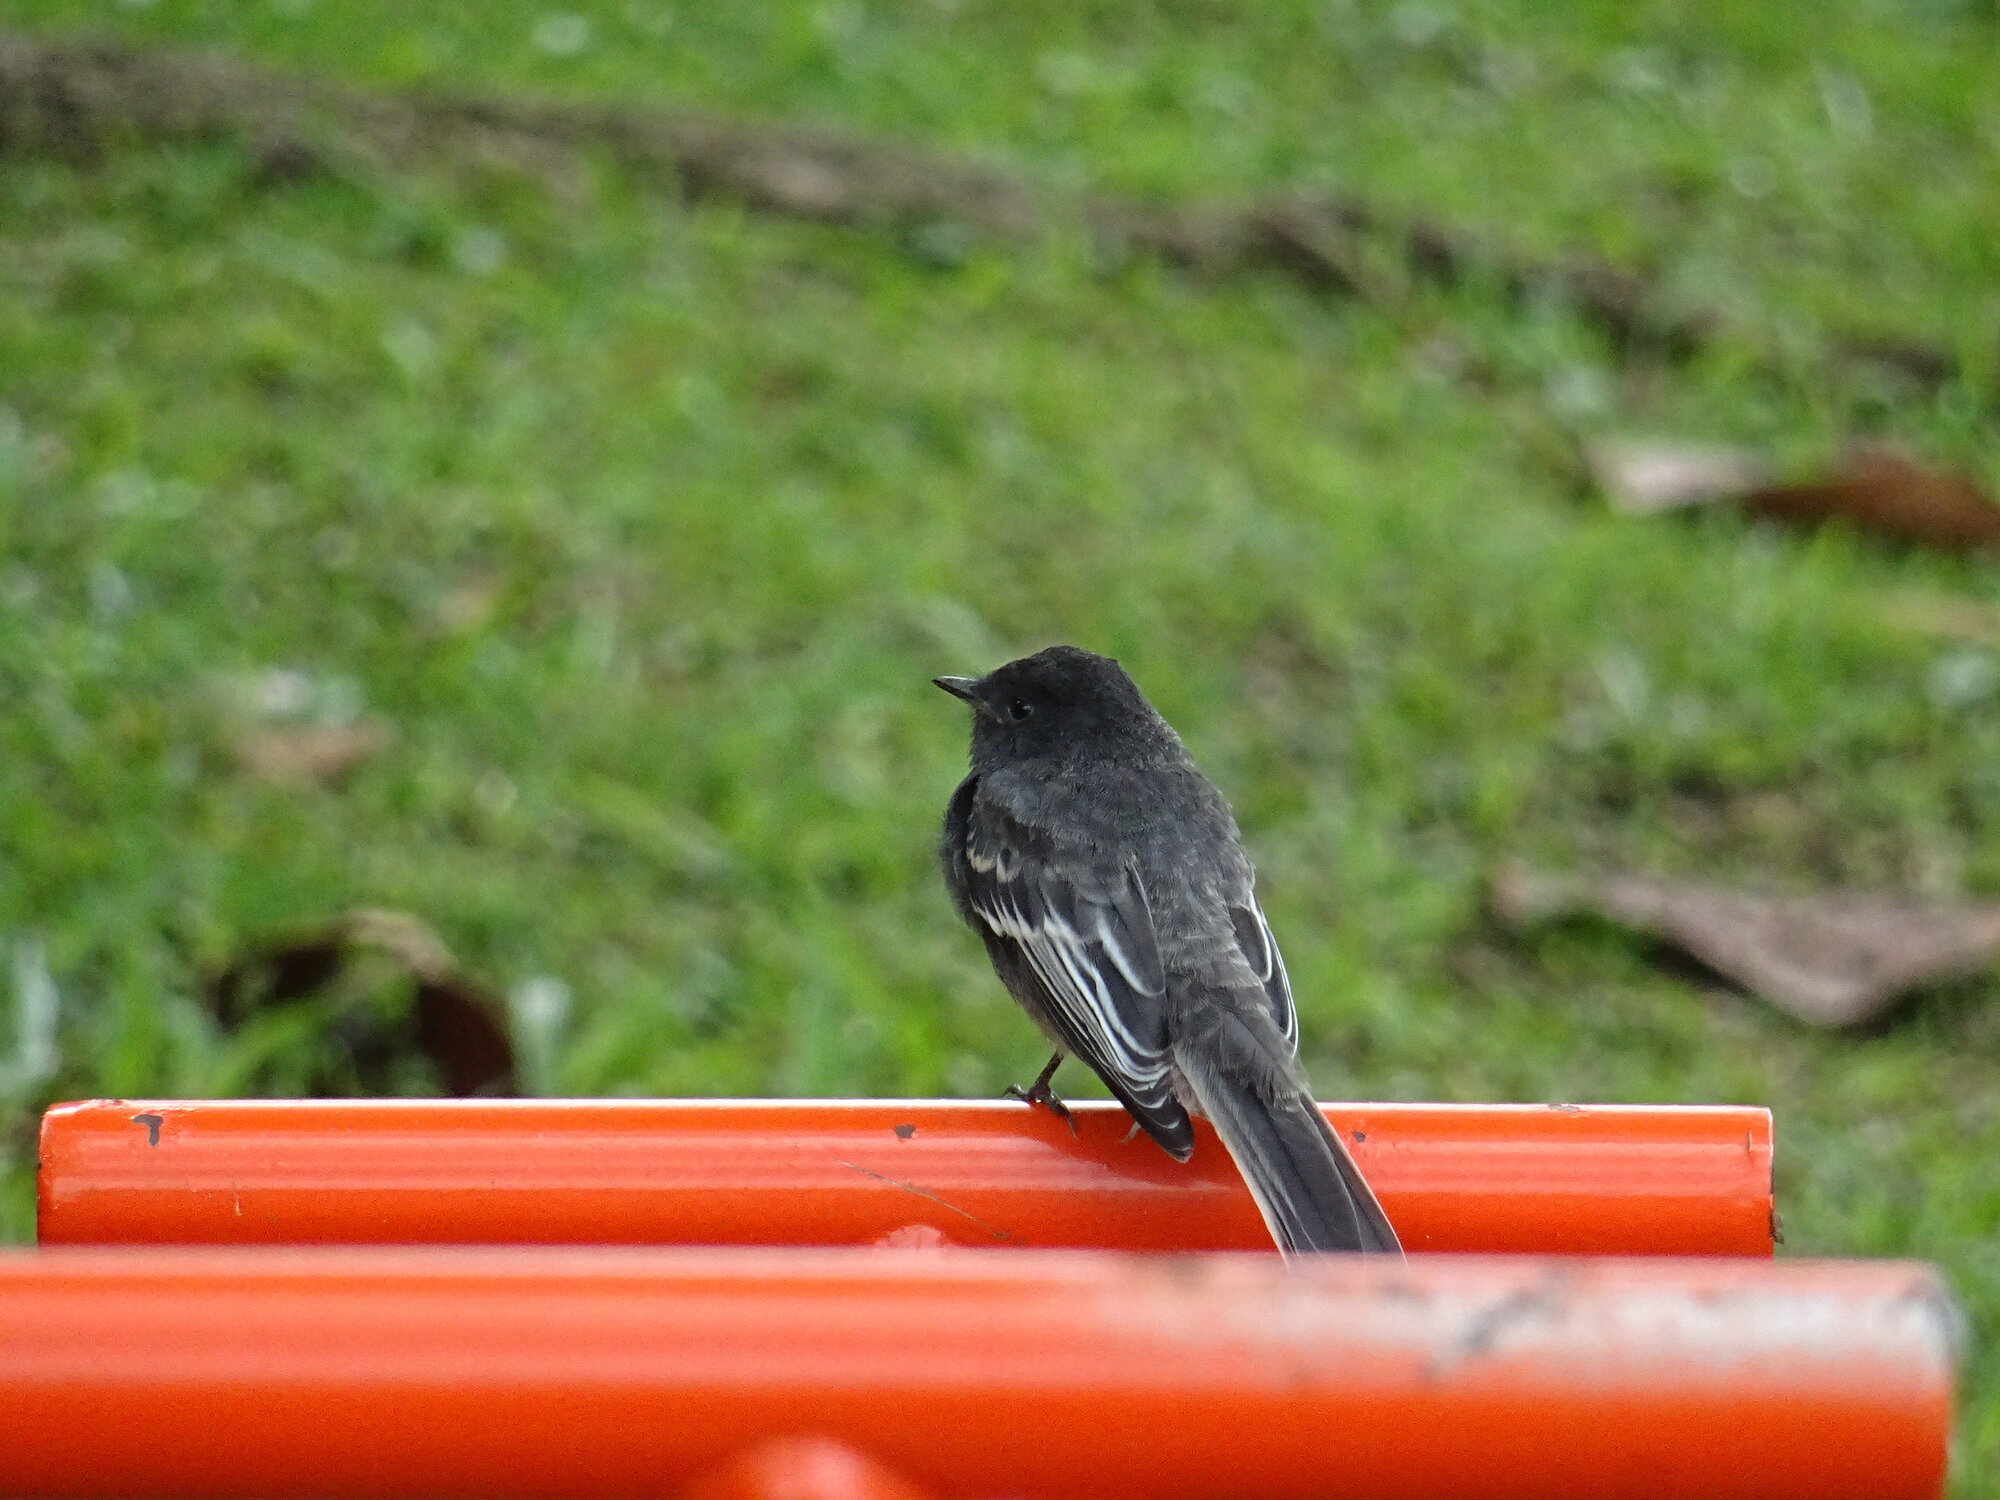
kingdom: Animalia
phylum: Chordata
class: Aves
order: Passeriformes
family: Tyrannidae
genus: Sayornis
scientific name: Sayornis nigricans
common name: Black phoebe
